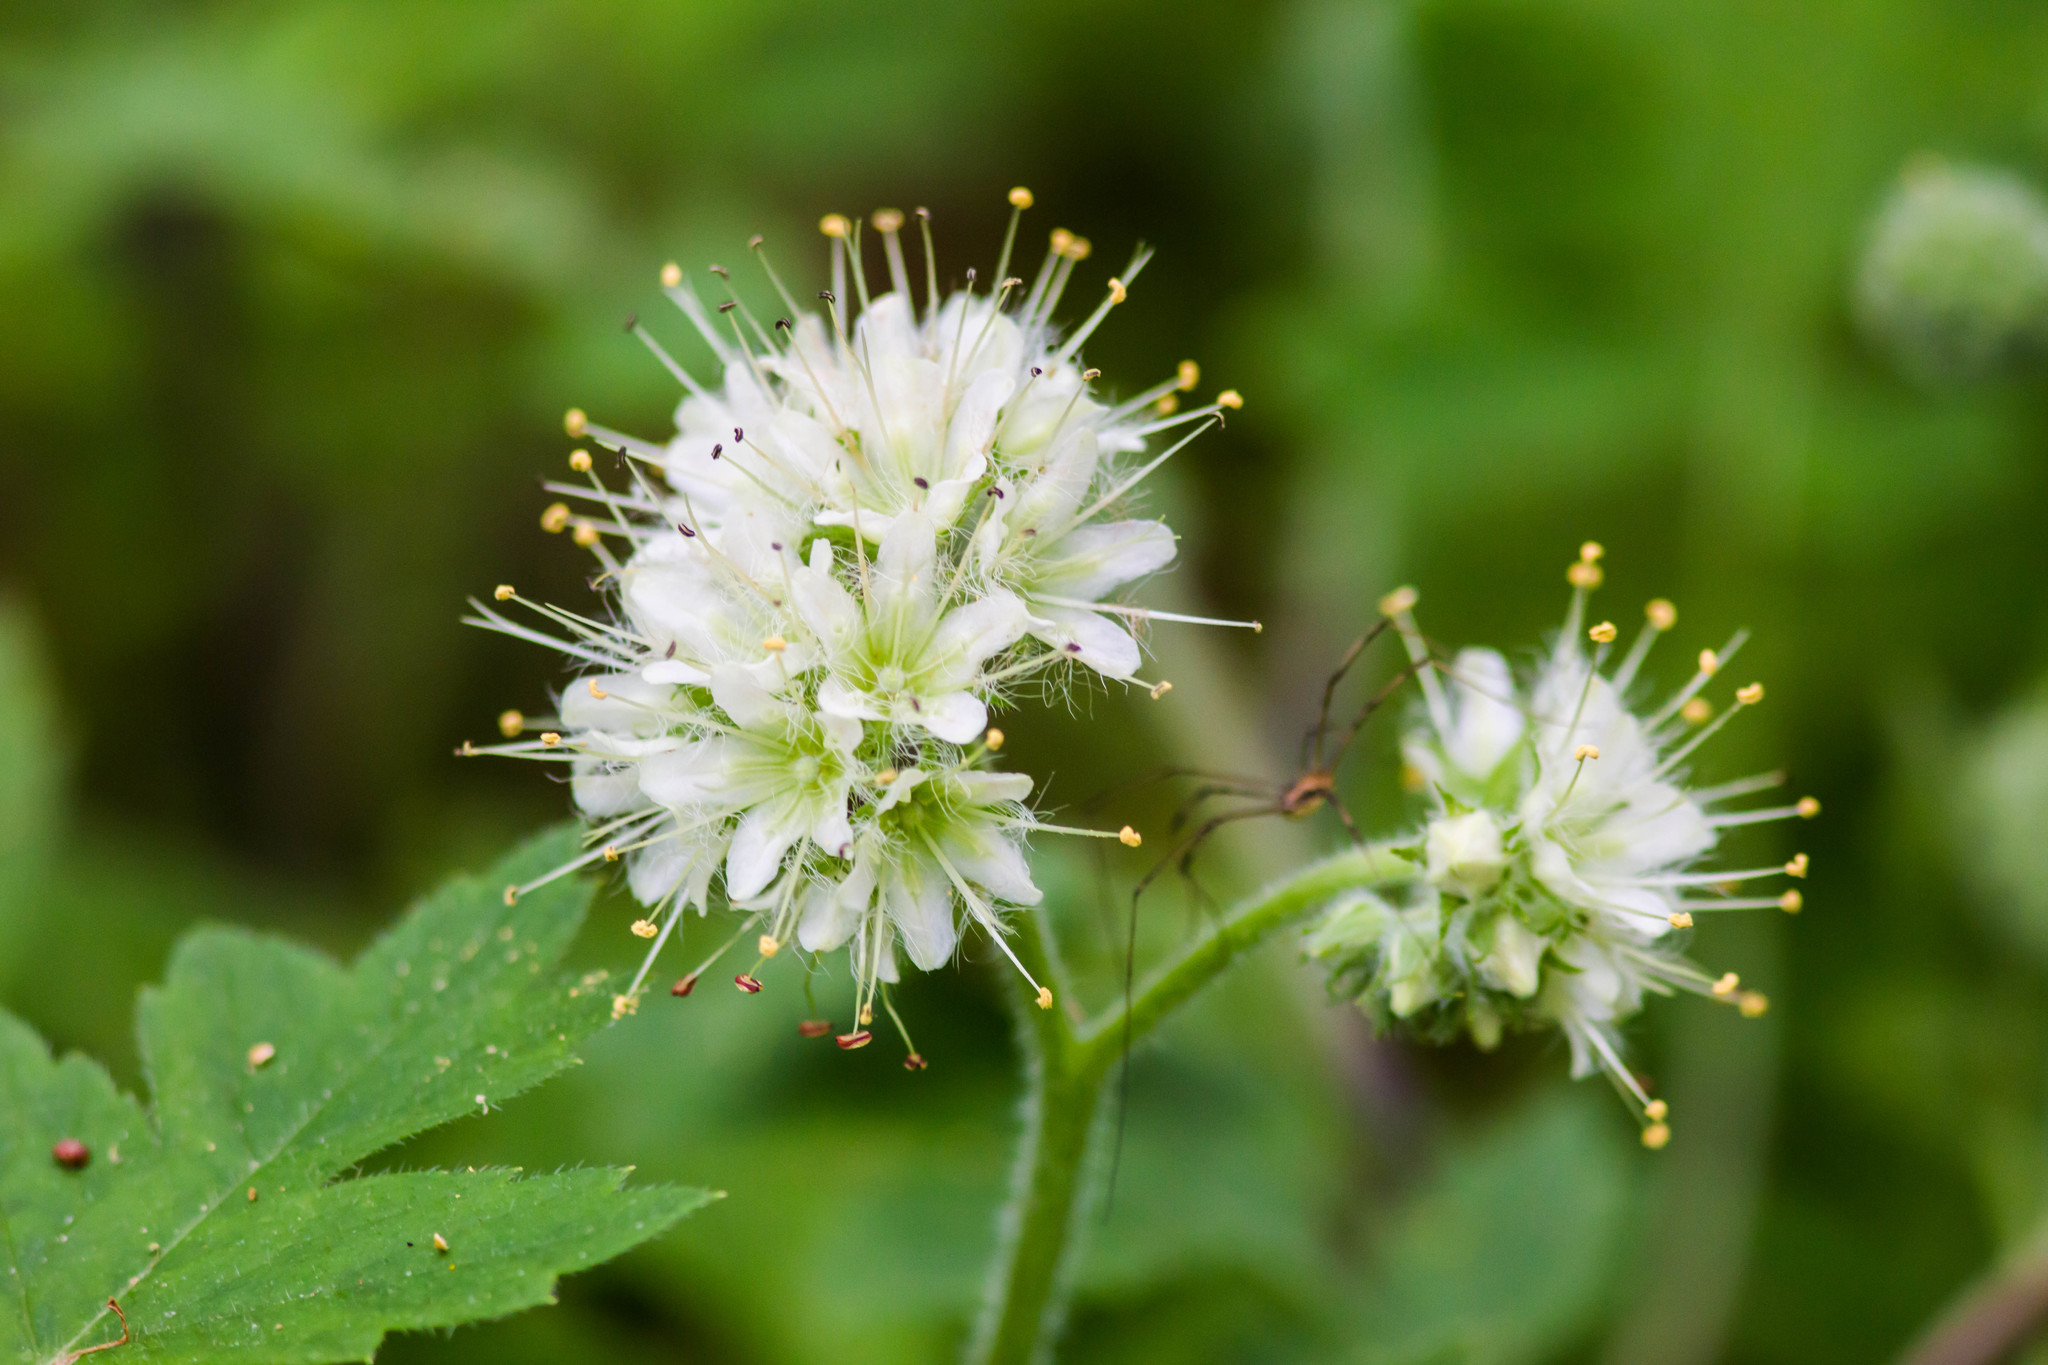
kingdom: Plantae
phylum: Tracheophyta
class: Magnoliopsida
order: Boraginales
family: Hydrophyllaceae
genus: Hydrophyllum
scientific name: Hydrophyllum macrophyllum
